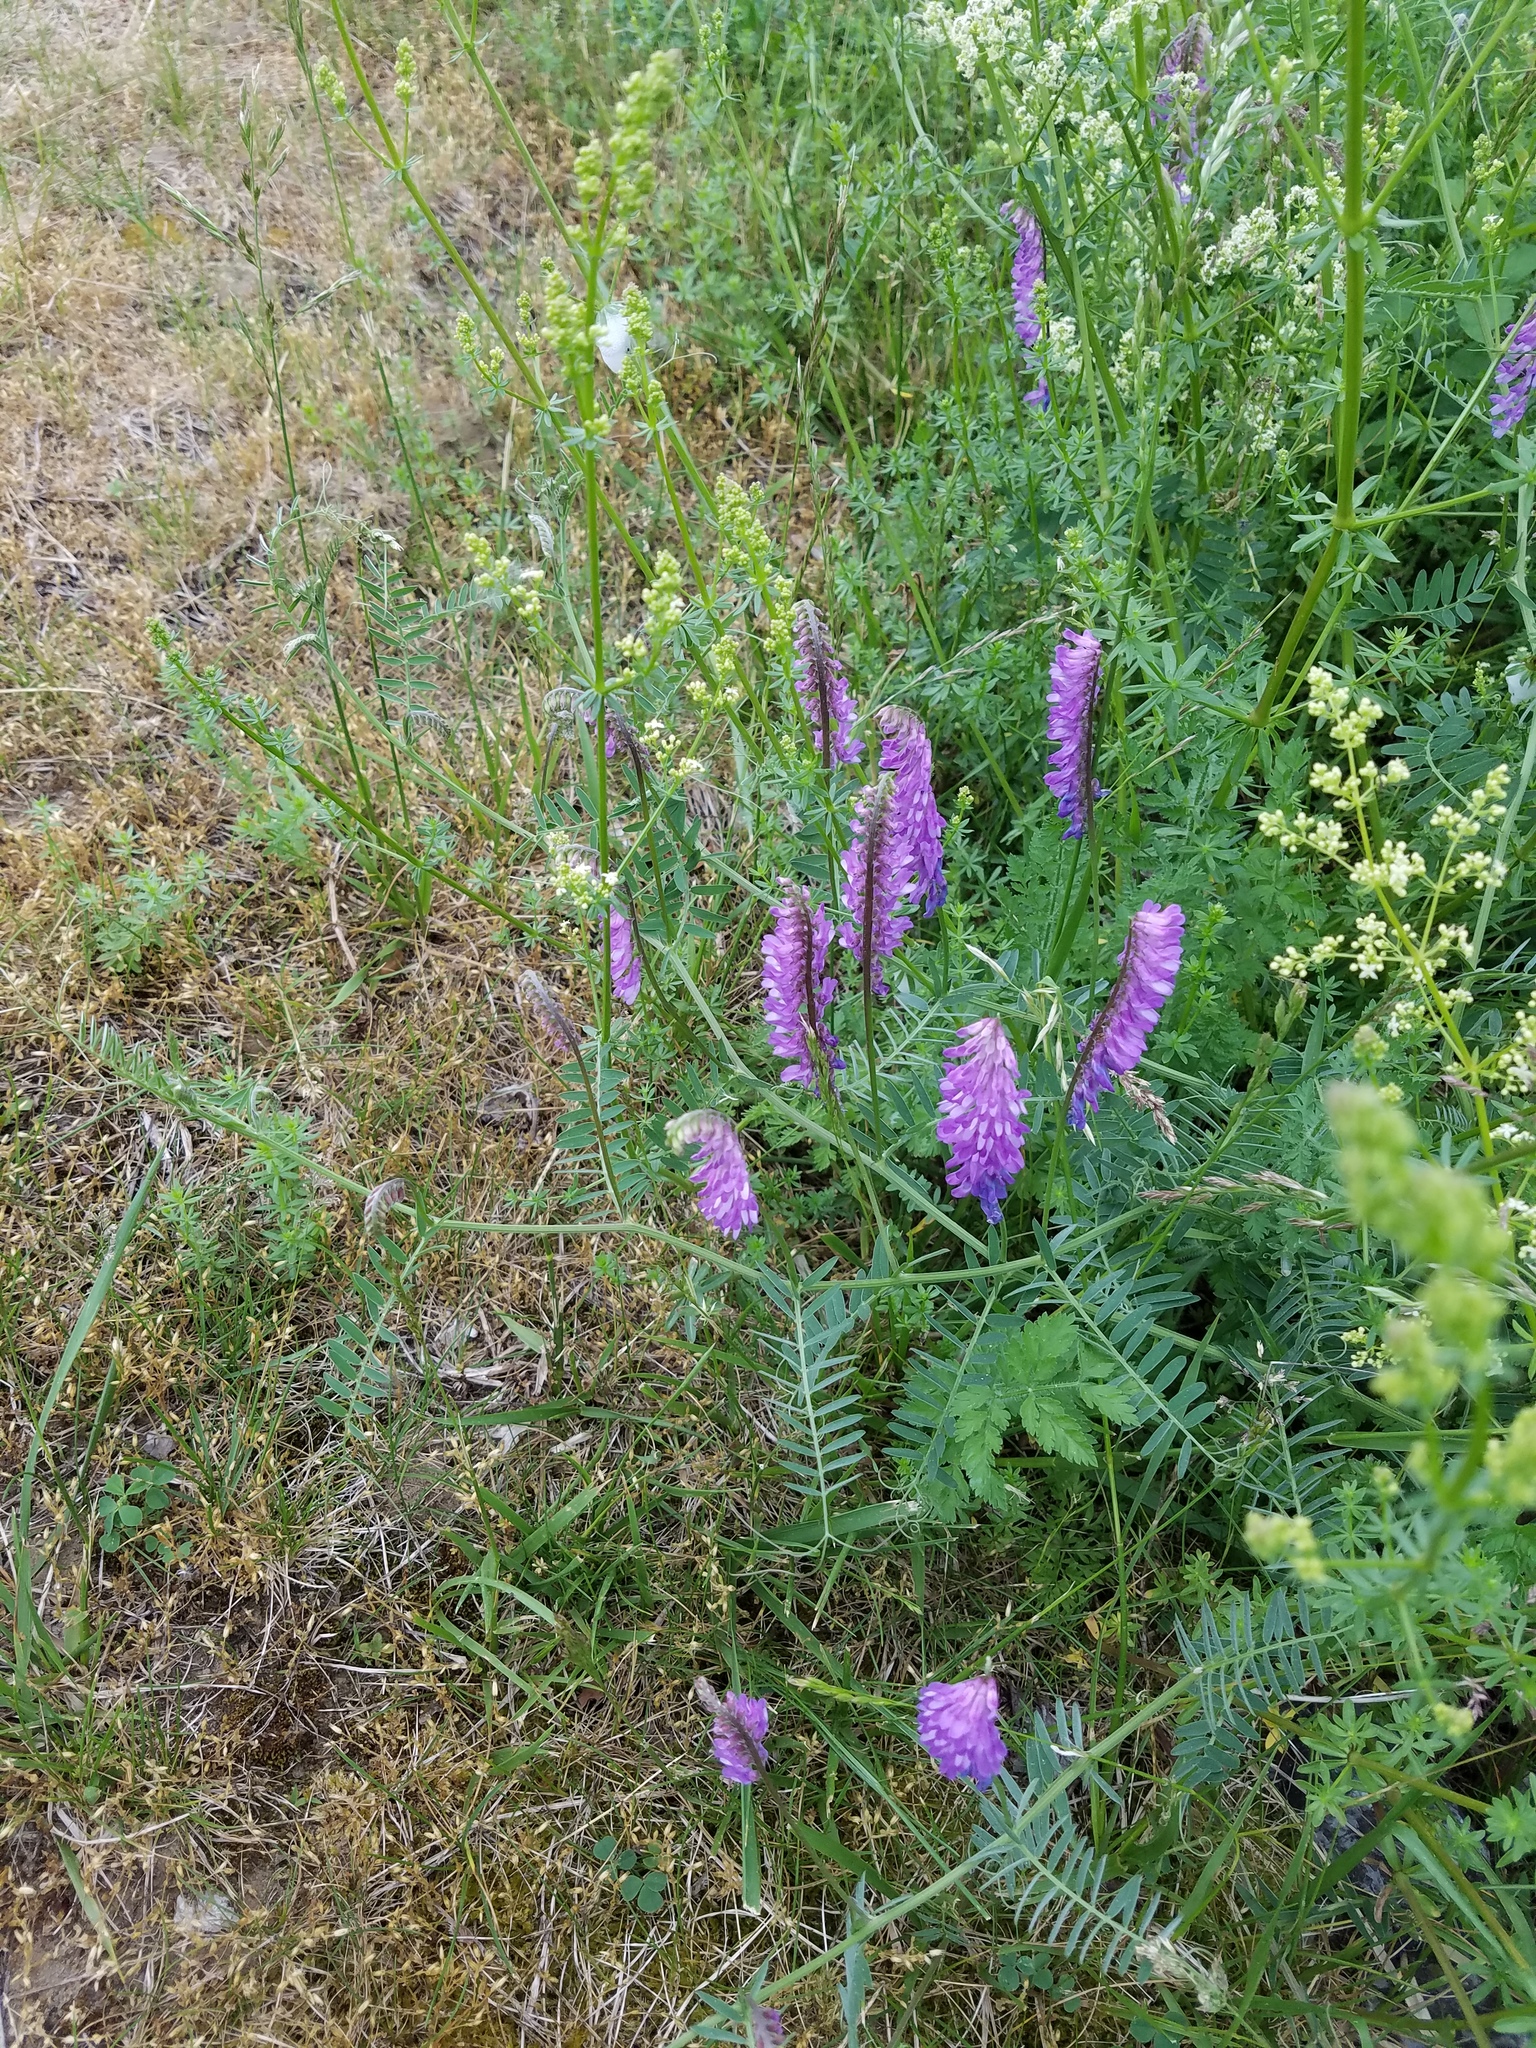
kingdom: Plantae
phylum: Tracheophyta
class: Magnoliopsida
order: Fabales
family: Fabaceae
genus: Vicia
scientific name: Vicia cracca
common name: Bird vetch
